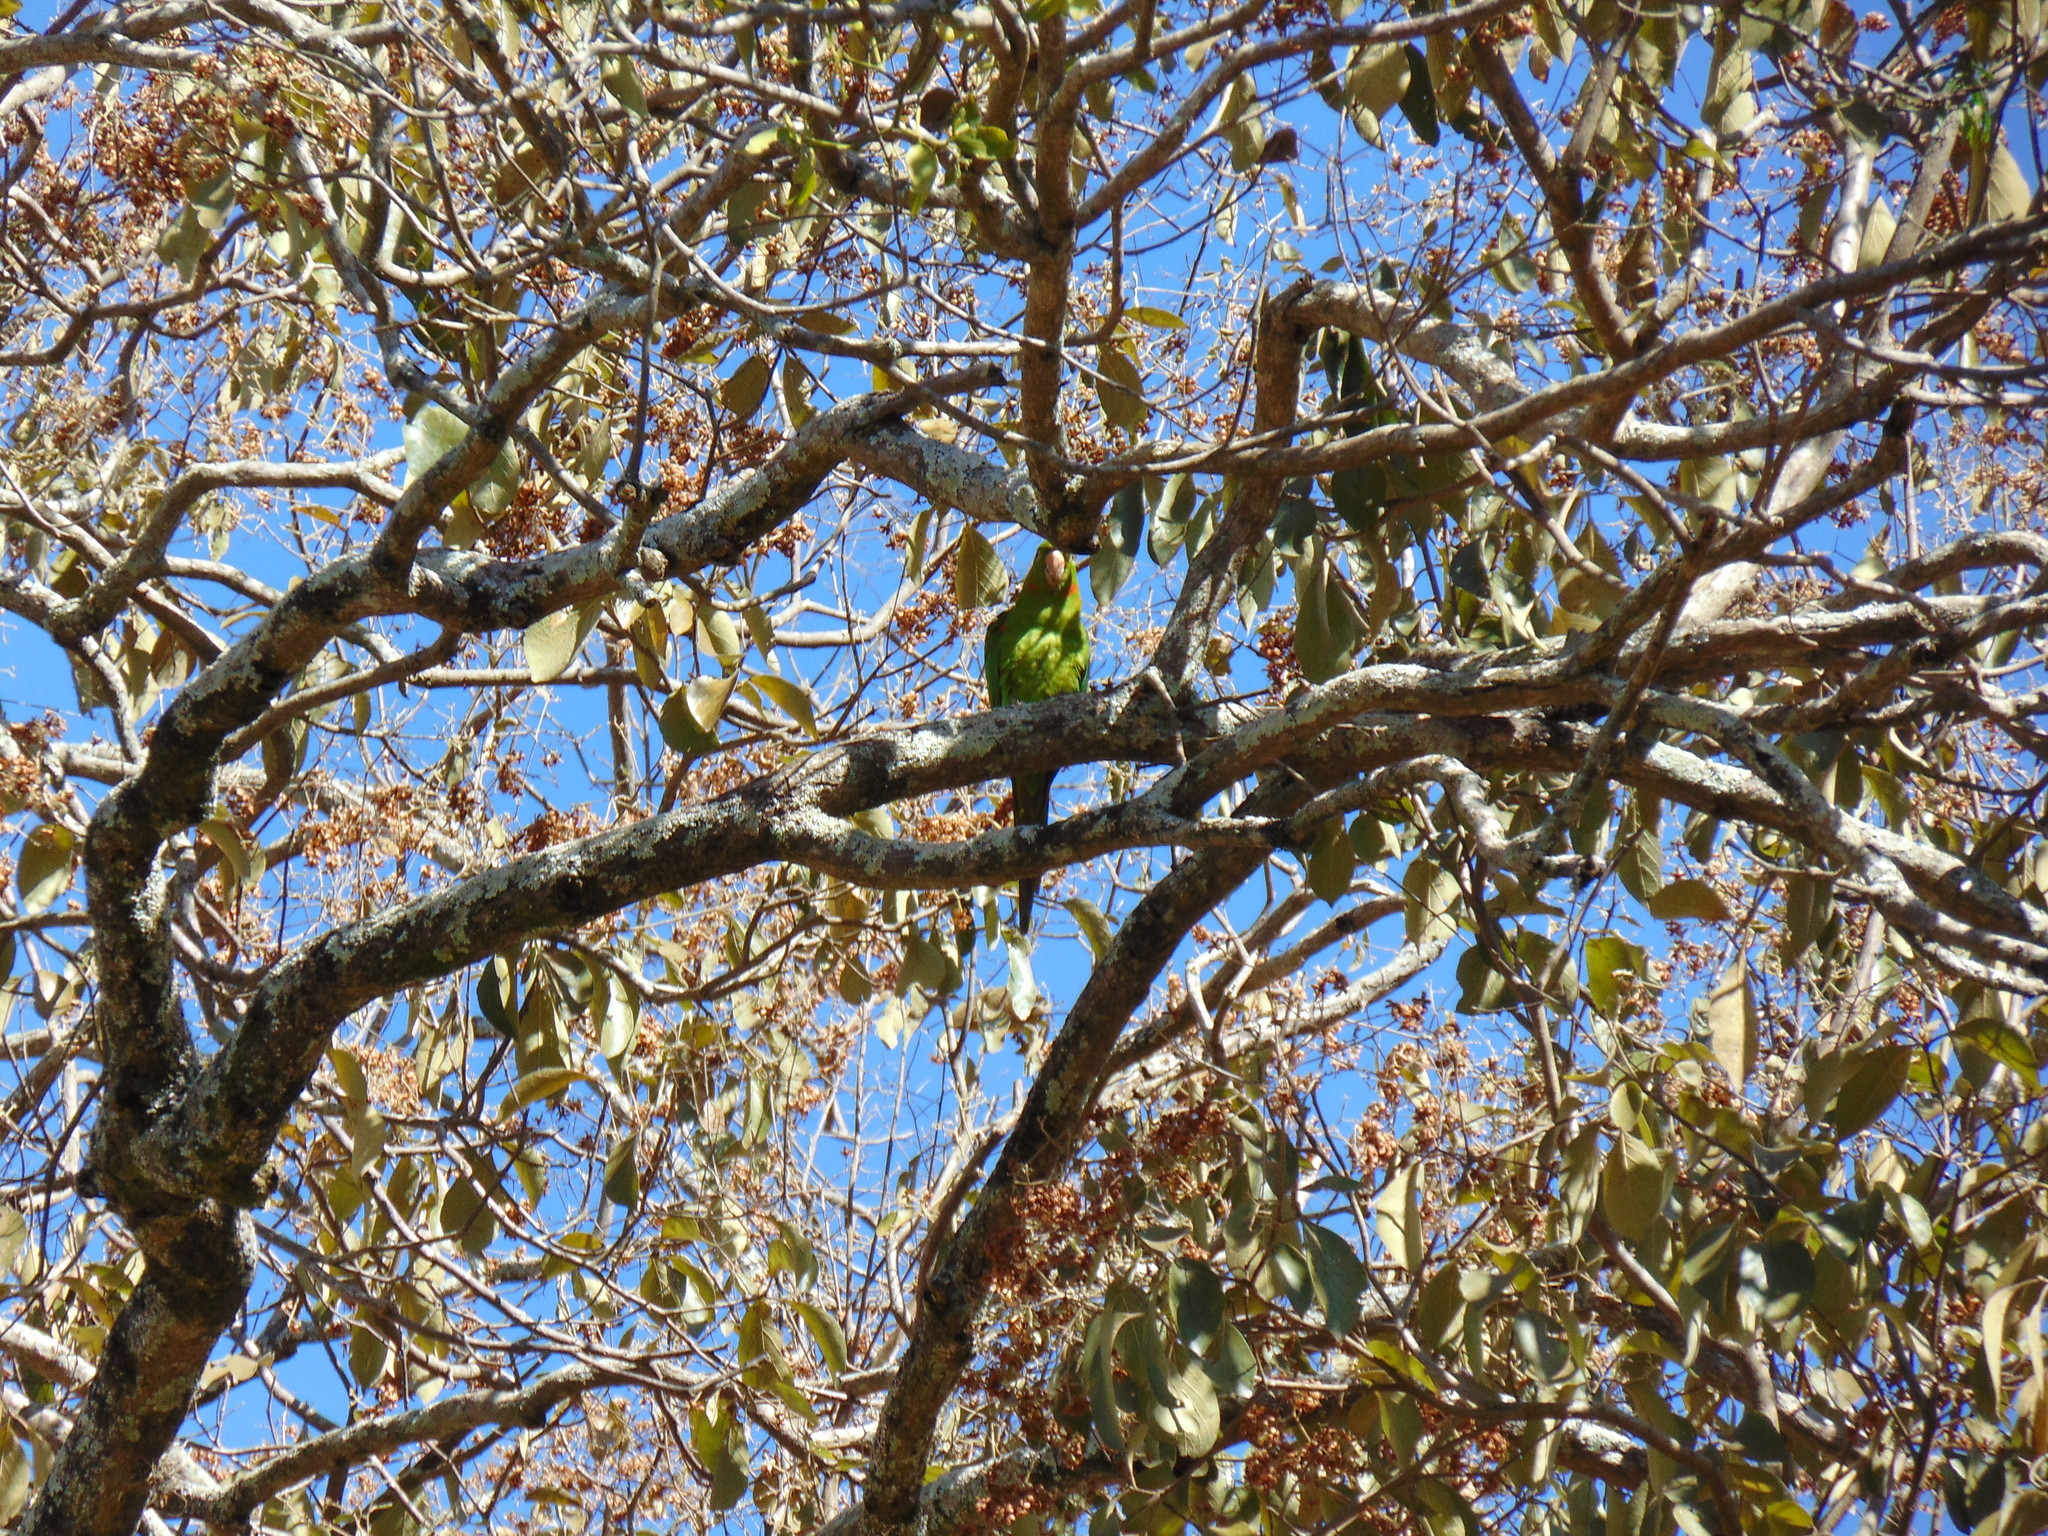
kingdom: Animalia
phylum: Chordata
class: Aves
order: Psittaciformes
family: Psittacidae
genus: Aratinga
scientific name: Aratinga leucophthalma
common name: White-eyed parakeet
